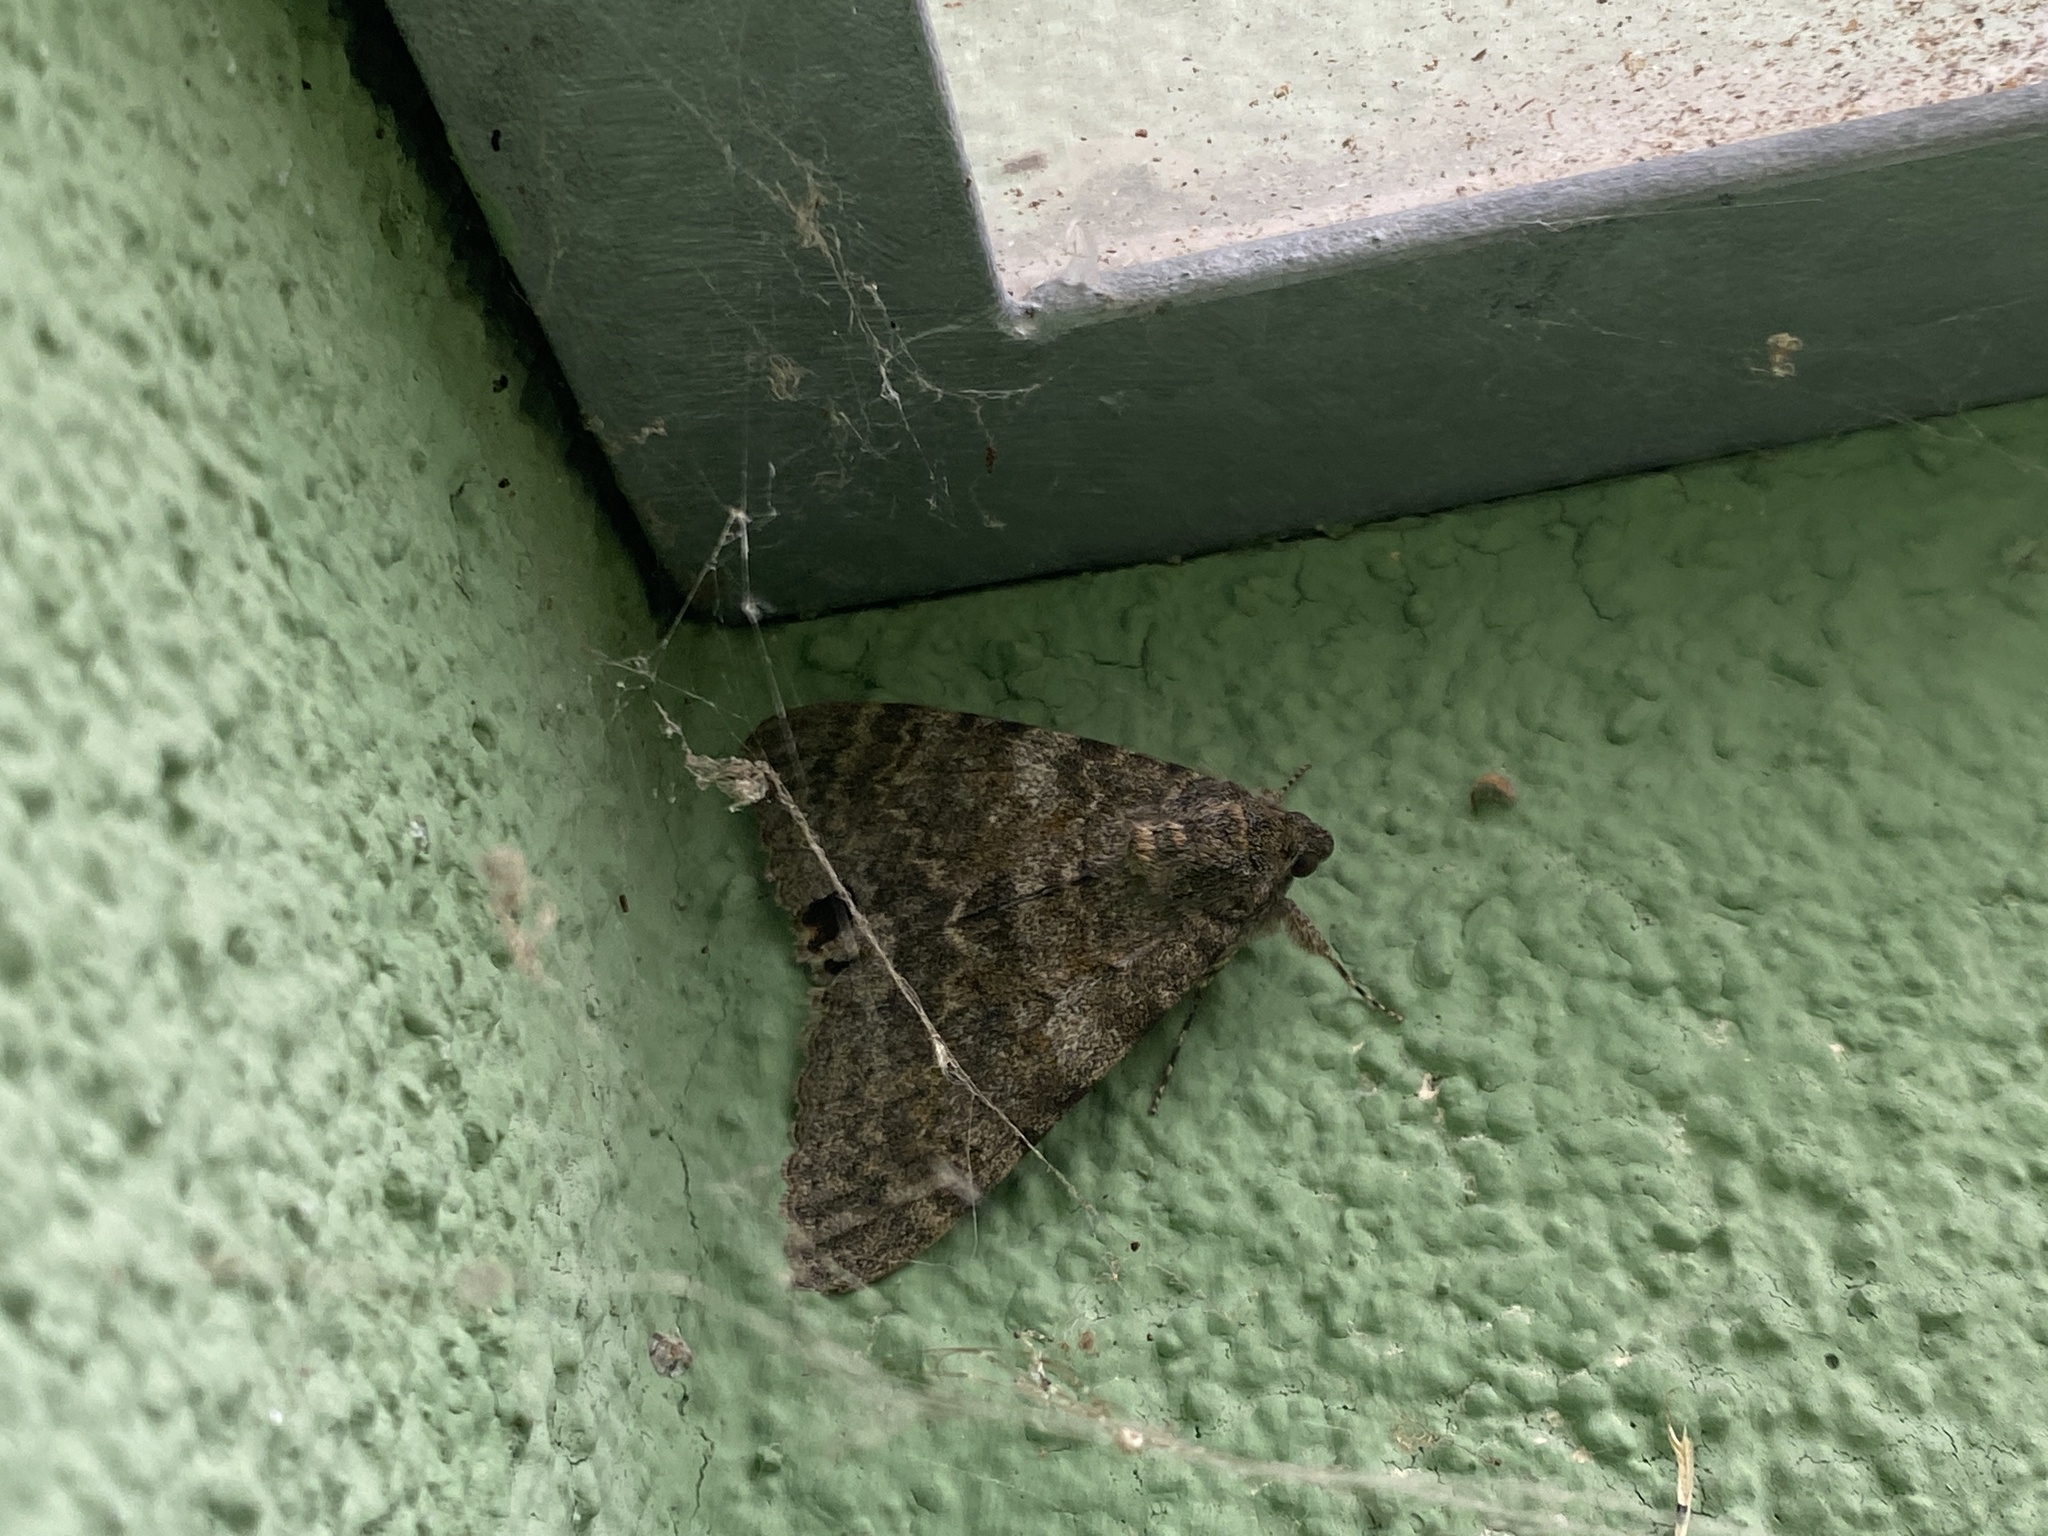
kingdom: Animalia
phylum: Arthropoda
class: Insecta
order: Lepidoptera
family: Erebidae
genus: Catocala
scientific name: Catocala elocata
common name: French red underwing
